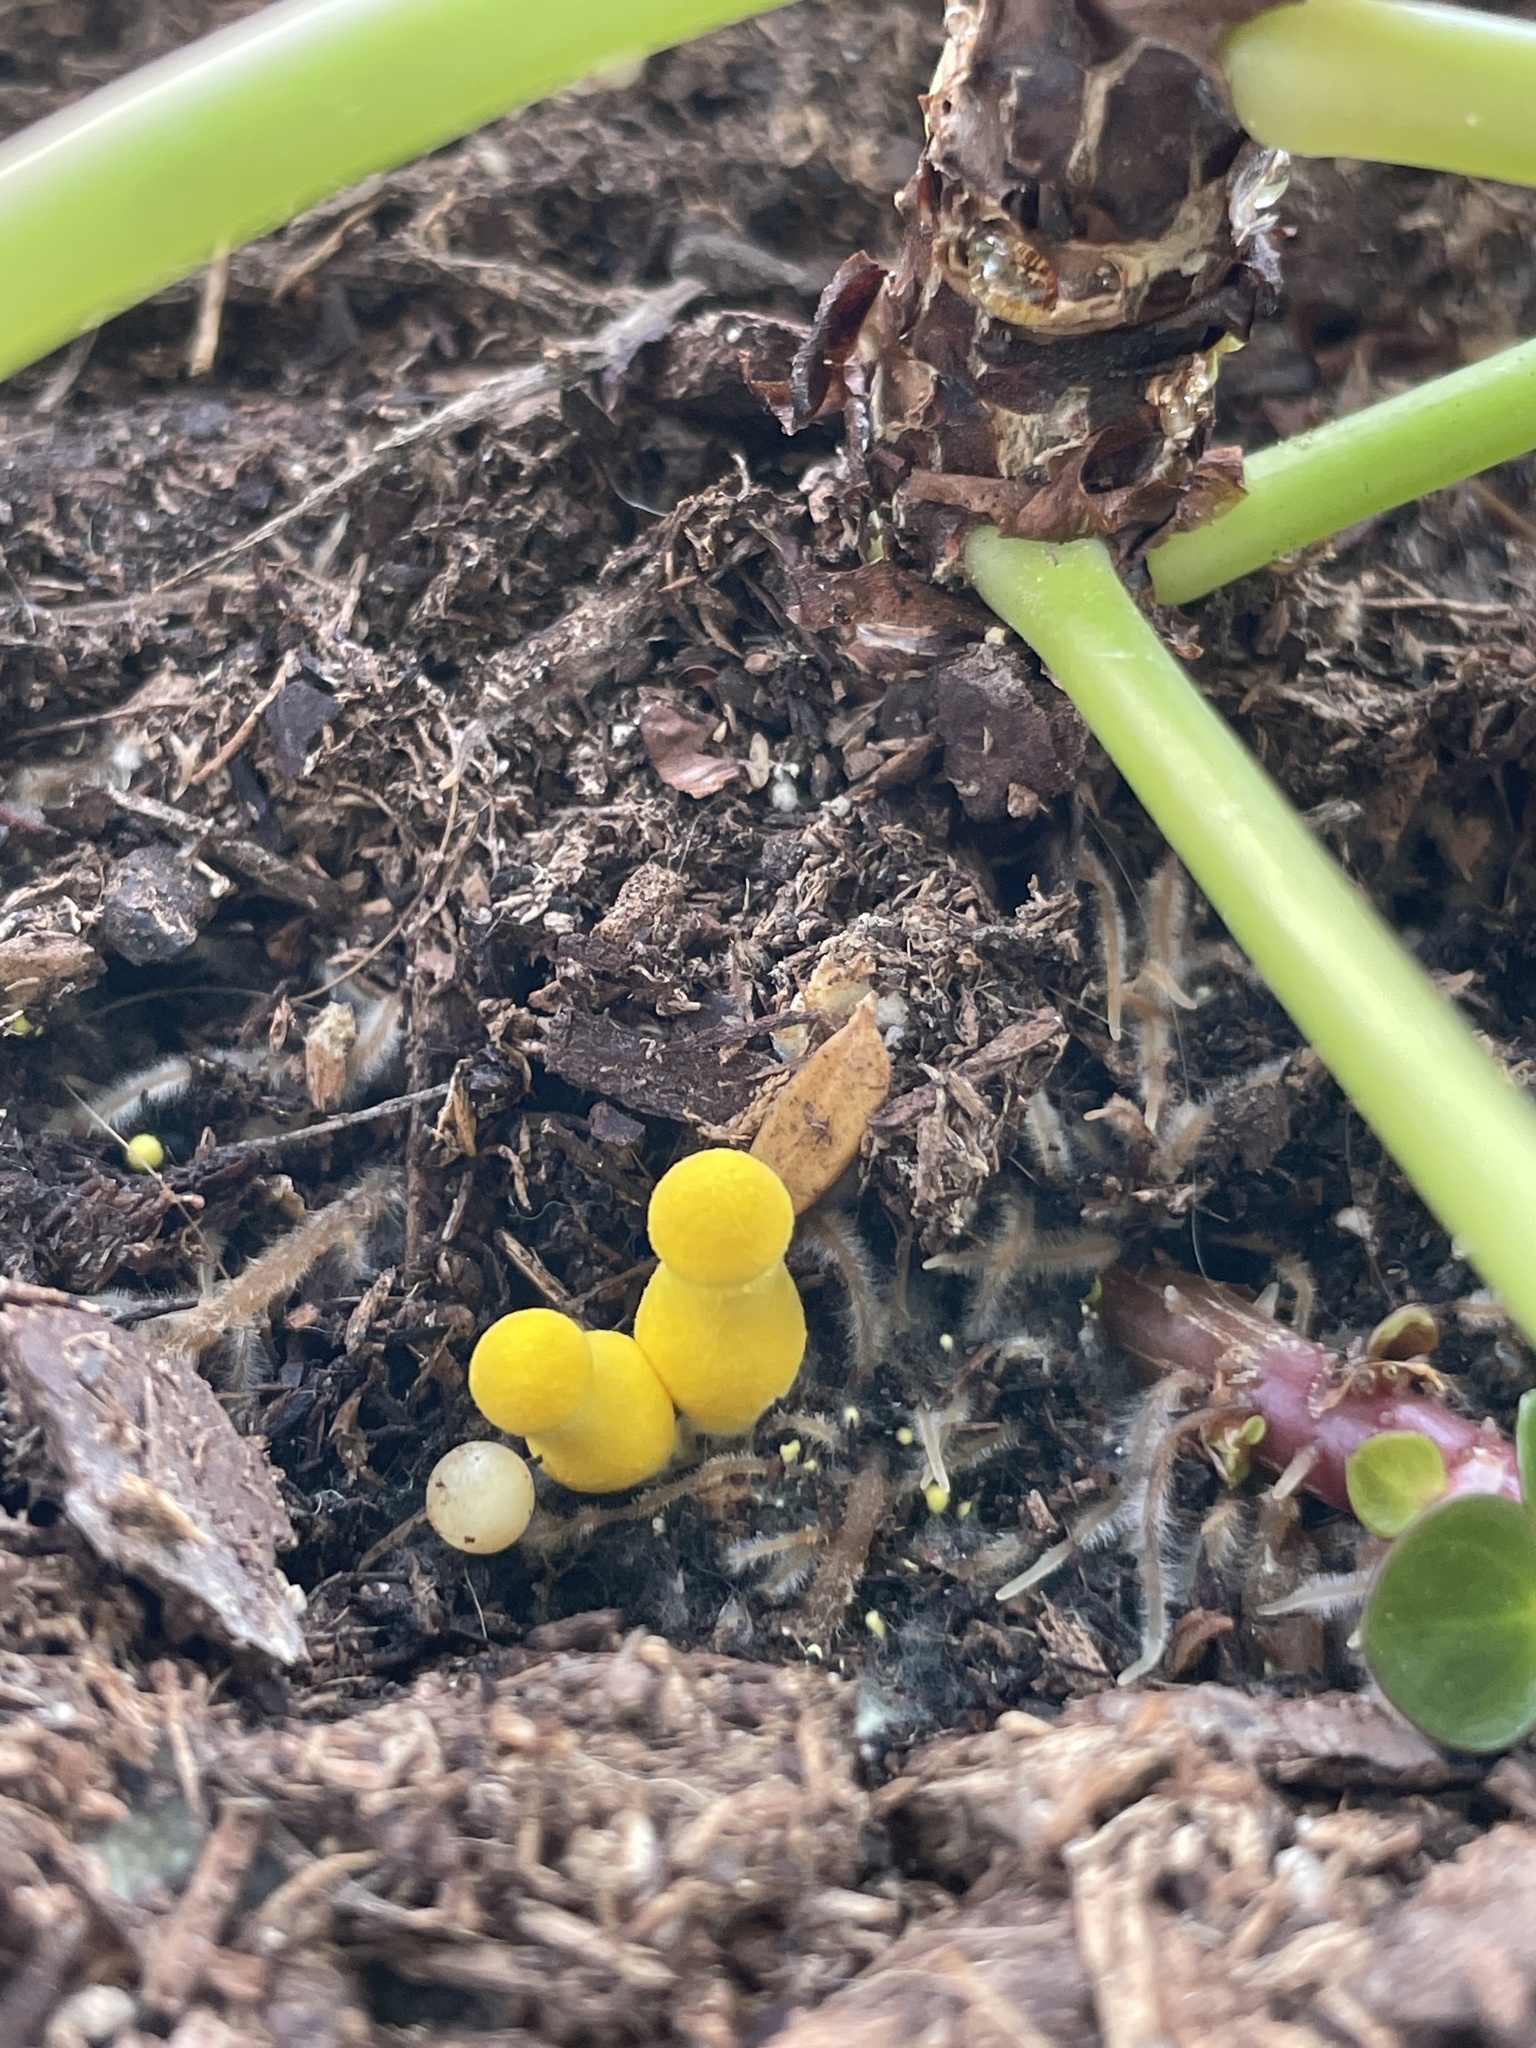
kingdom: Fungi
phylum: Basidiomycota
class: Agaricomycetes
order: Agaricales
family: Agaricaceae
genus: Leucocoprinus
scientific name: Leucocoprinus birnbaumii
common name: Plantpot dapperling
